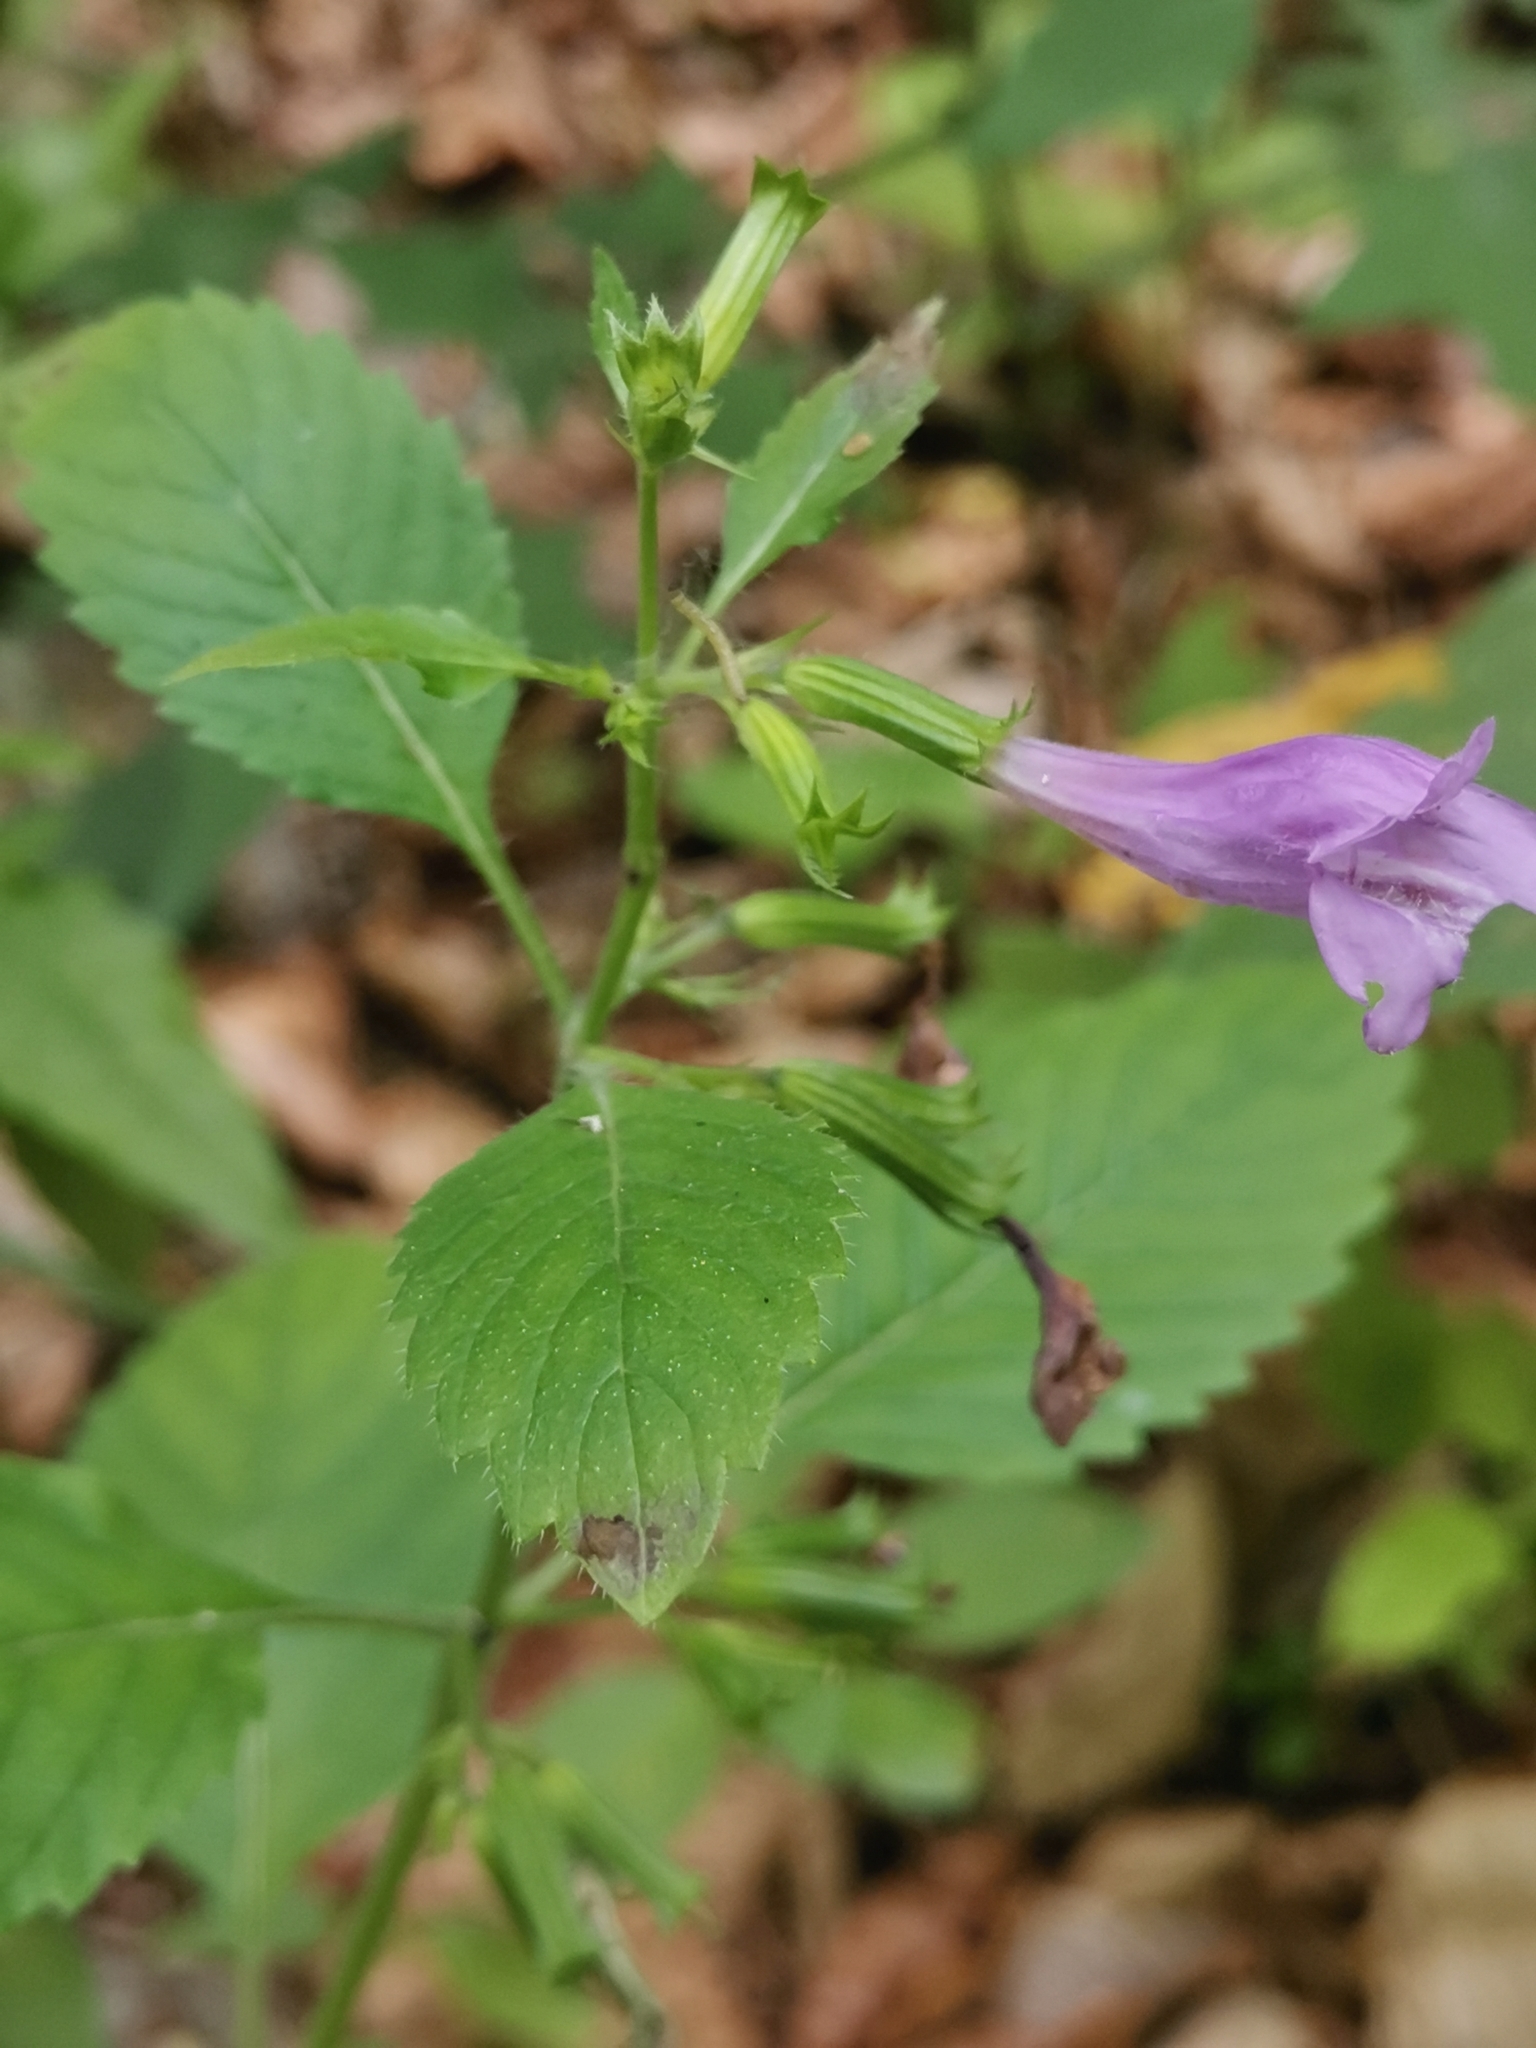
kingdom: Plantae
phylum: Tracheophyta
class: Magnoliopsida
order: Lamiales
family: Lamiaceae
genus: Clinopodium
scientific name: Clinopodium grandiflorum
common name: Greater calamint
